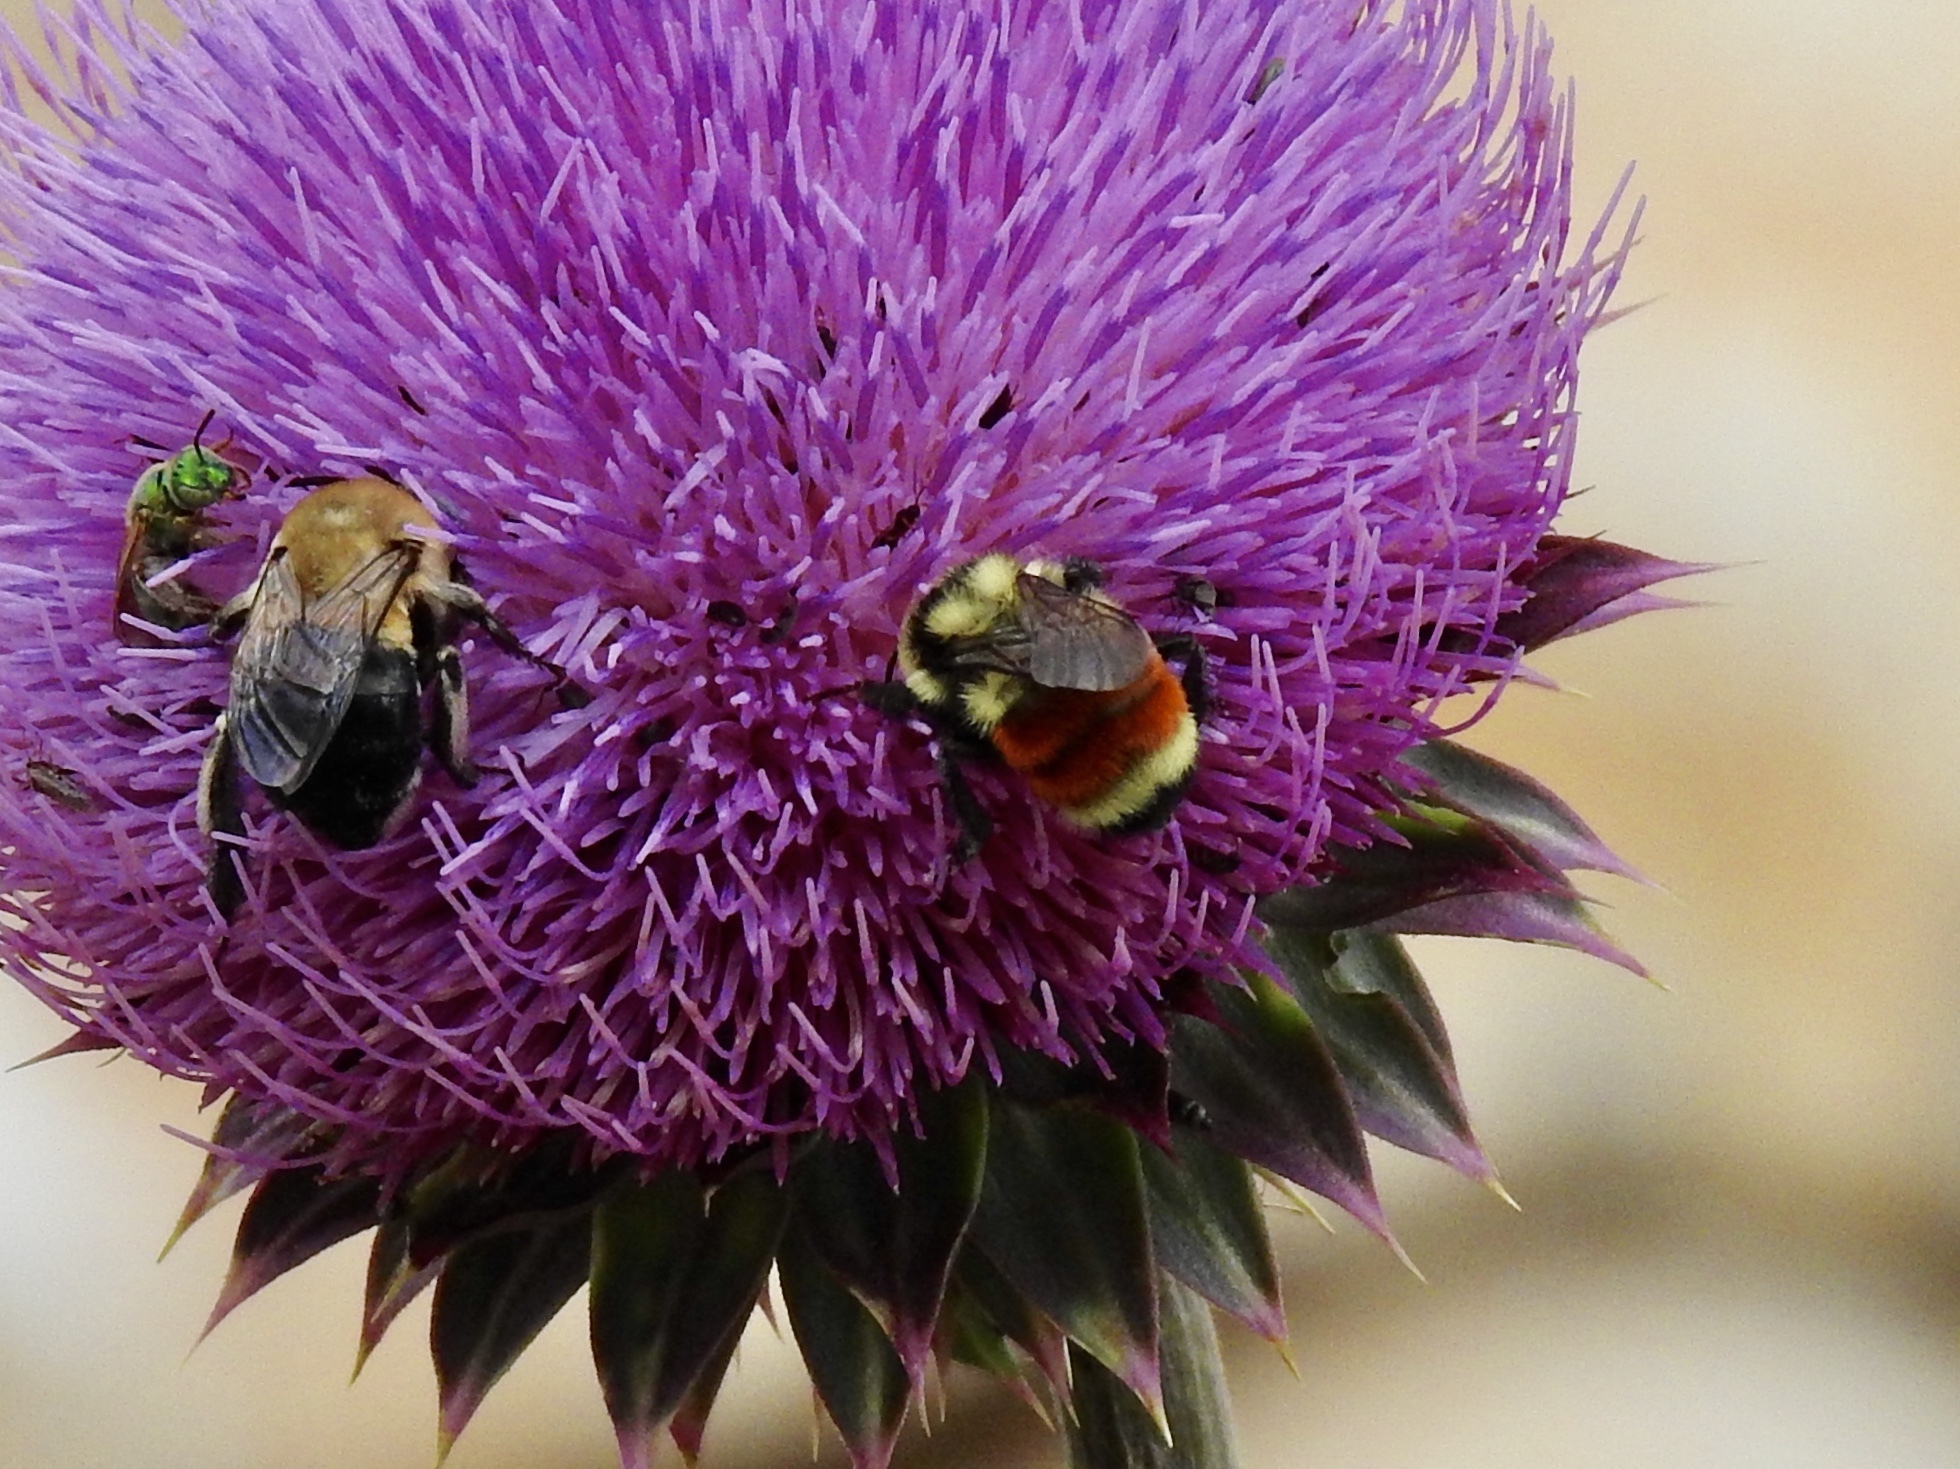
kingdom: Animalia
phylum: Arthropoda
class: Insecta
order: Hymenoptera
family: Apidae
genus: Bombus
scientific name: Bombus huntii
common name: Hunt bumble bee
